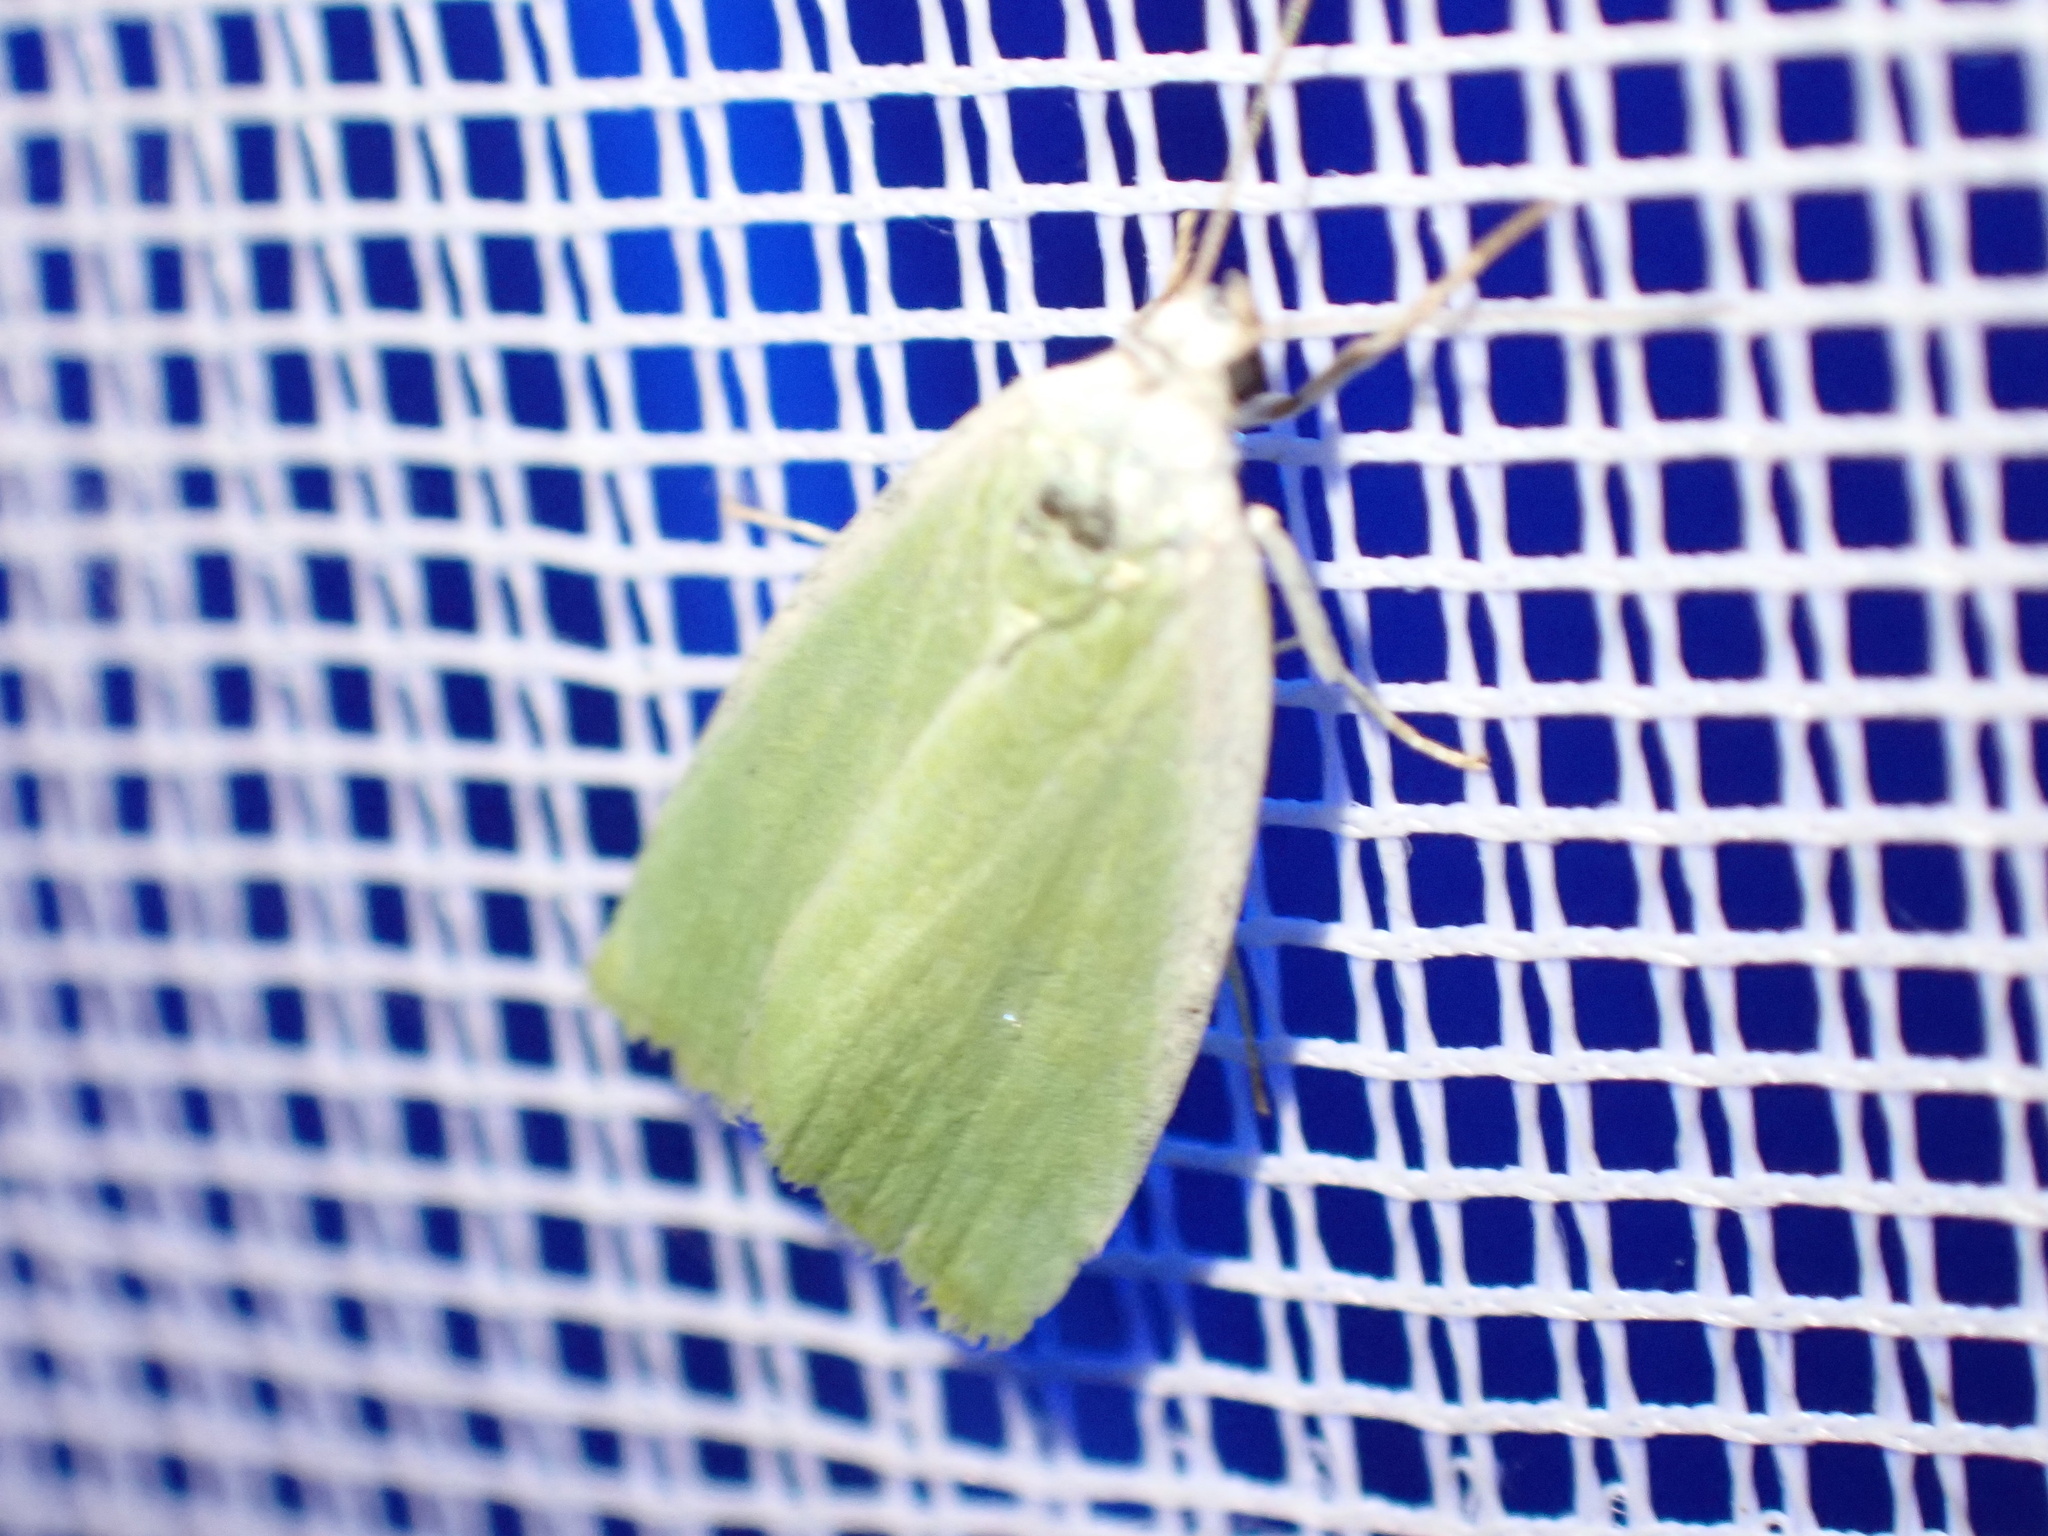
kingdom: Animalia
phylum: Arthropoda
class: Insecta
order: Lepidoptera
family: Nolidae
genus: Earias
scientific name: Earias clorana
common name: Cream-bordered green pea
